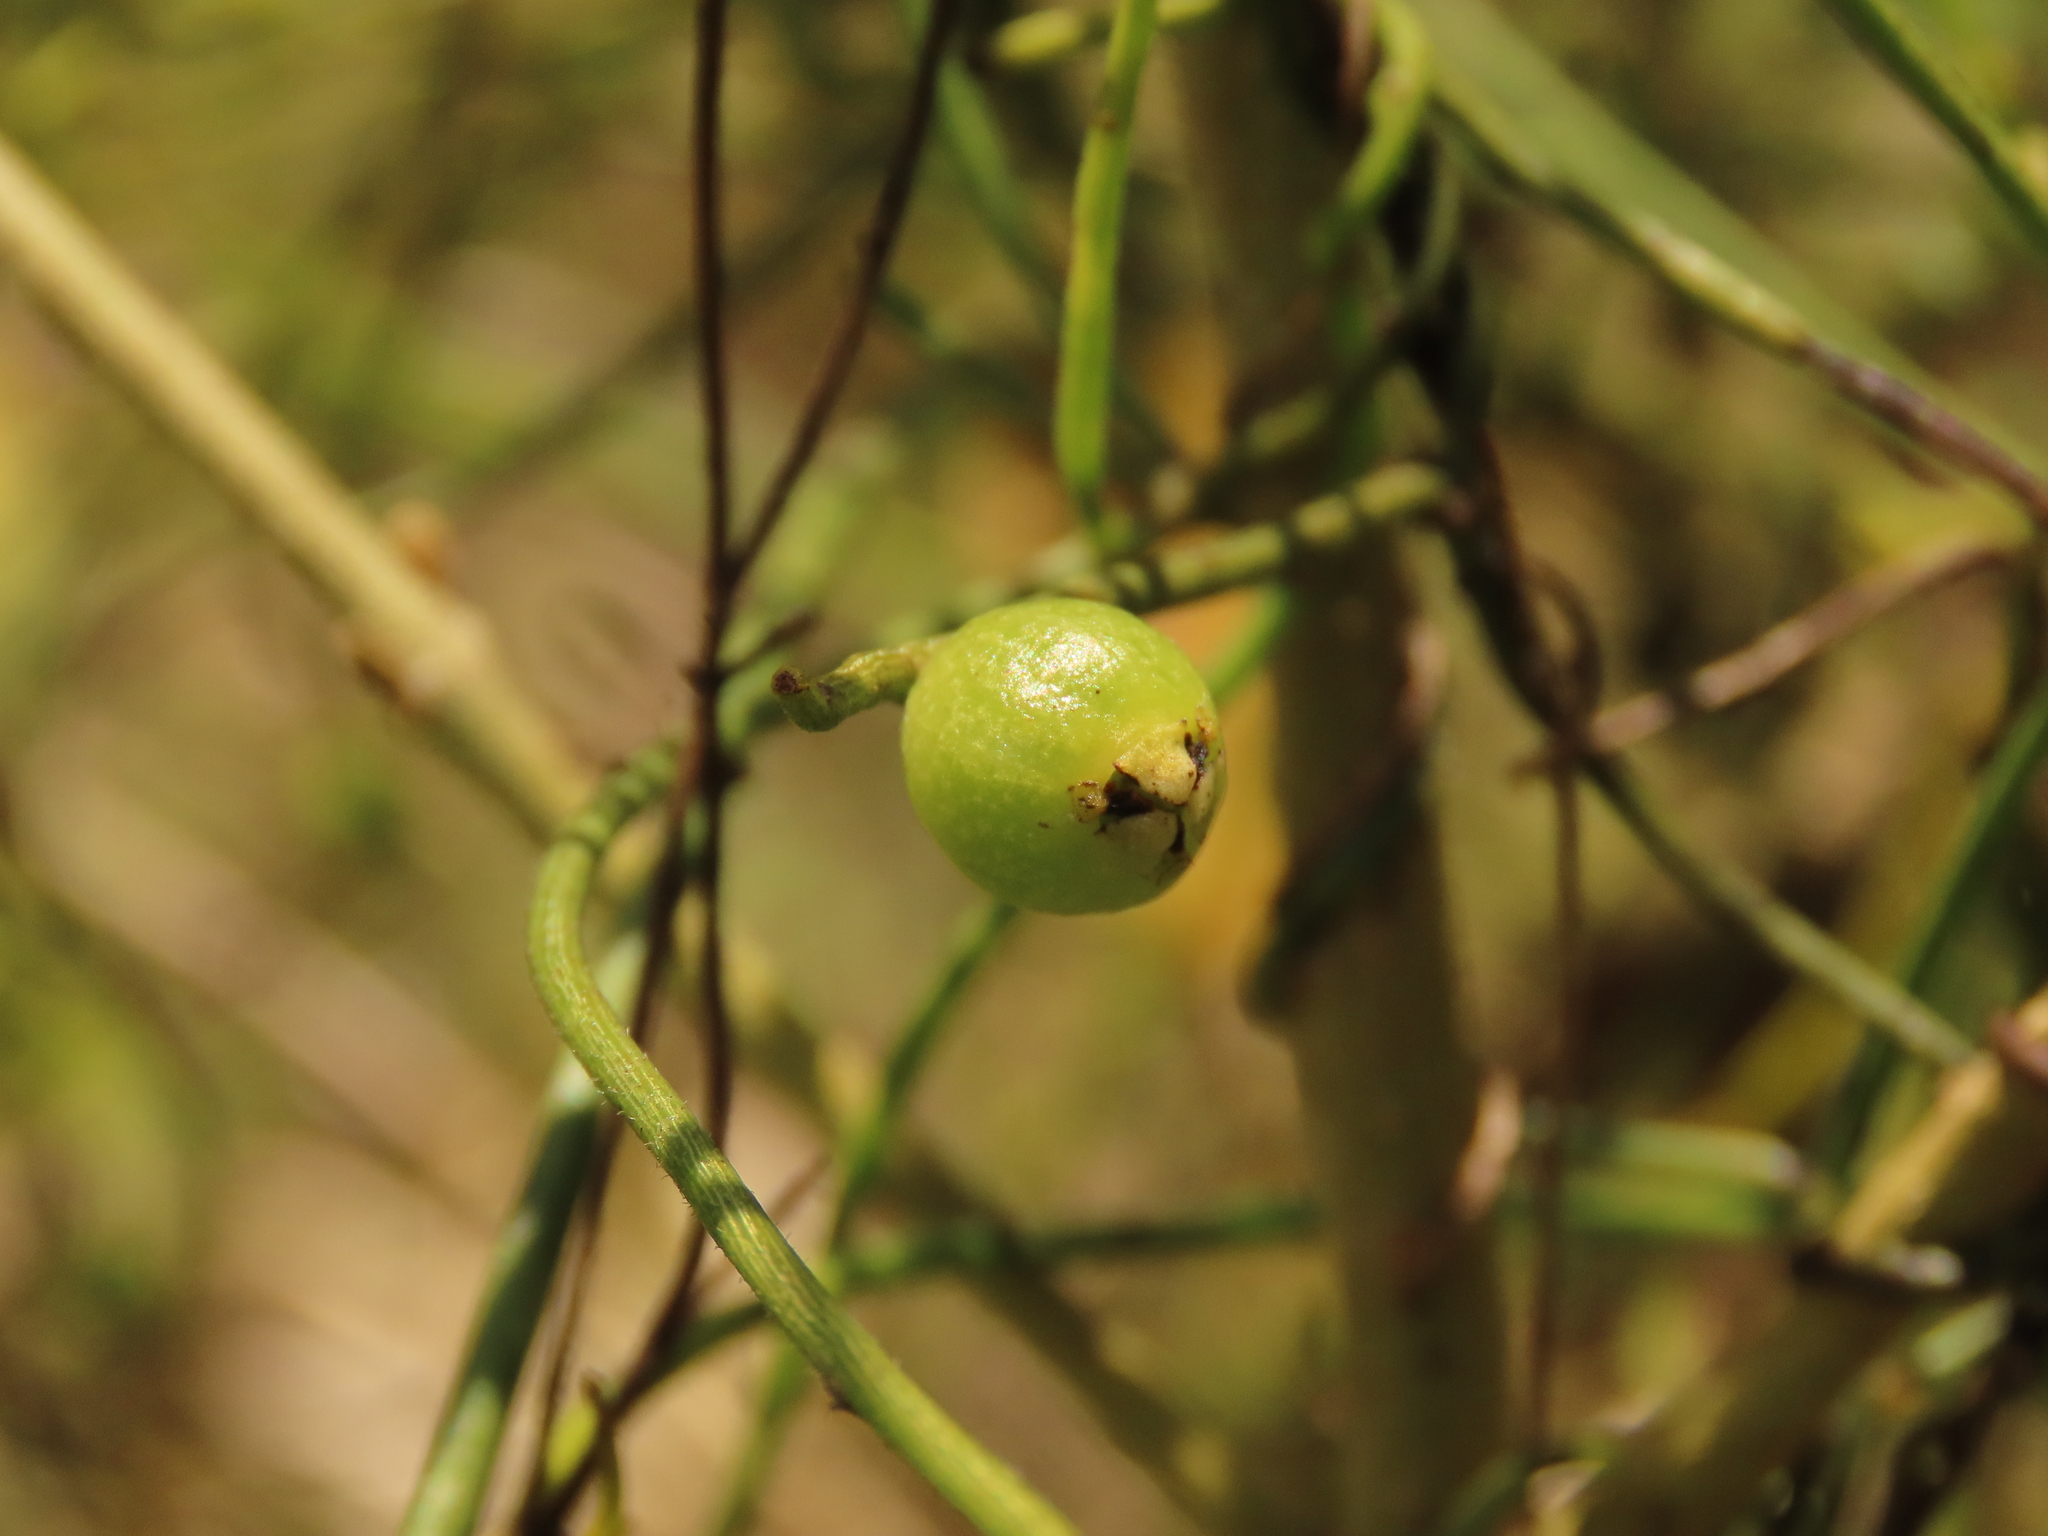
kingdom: Plantae
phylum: Tracheophyta
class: Magnoliopsida
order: Laurales
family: Lauraceae
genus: Cassytha
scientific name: Cassytha filiformis
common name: Dodder-laurel
